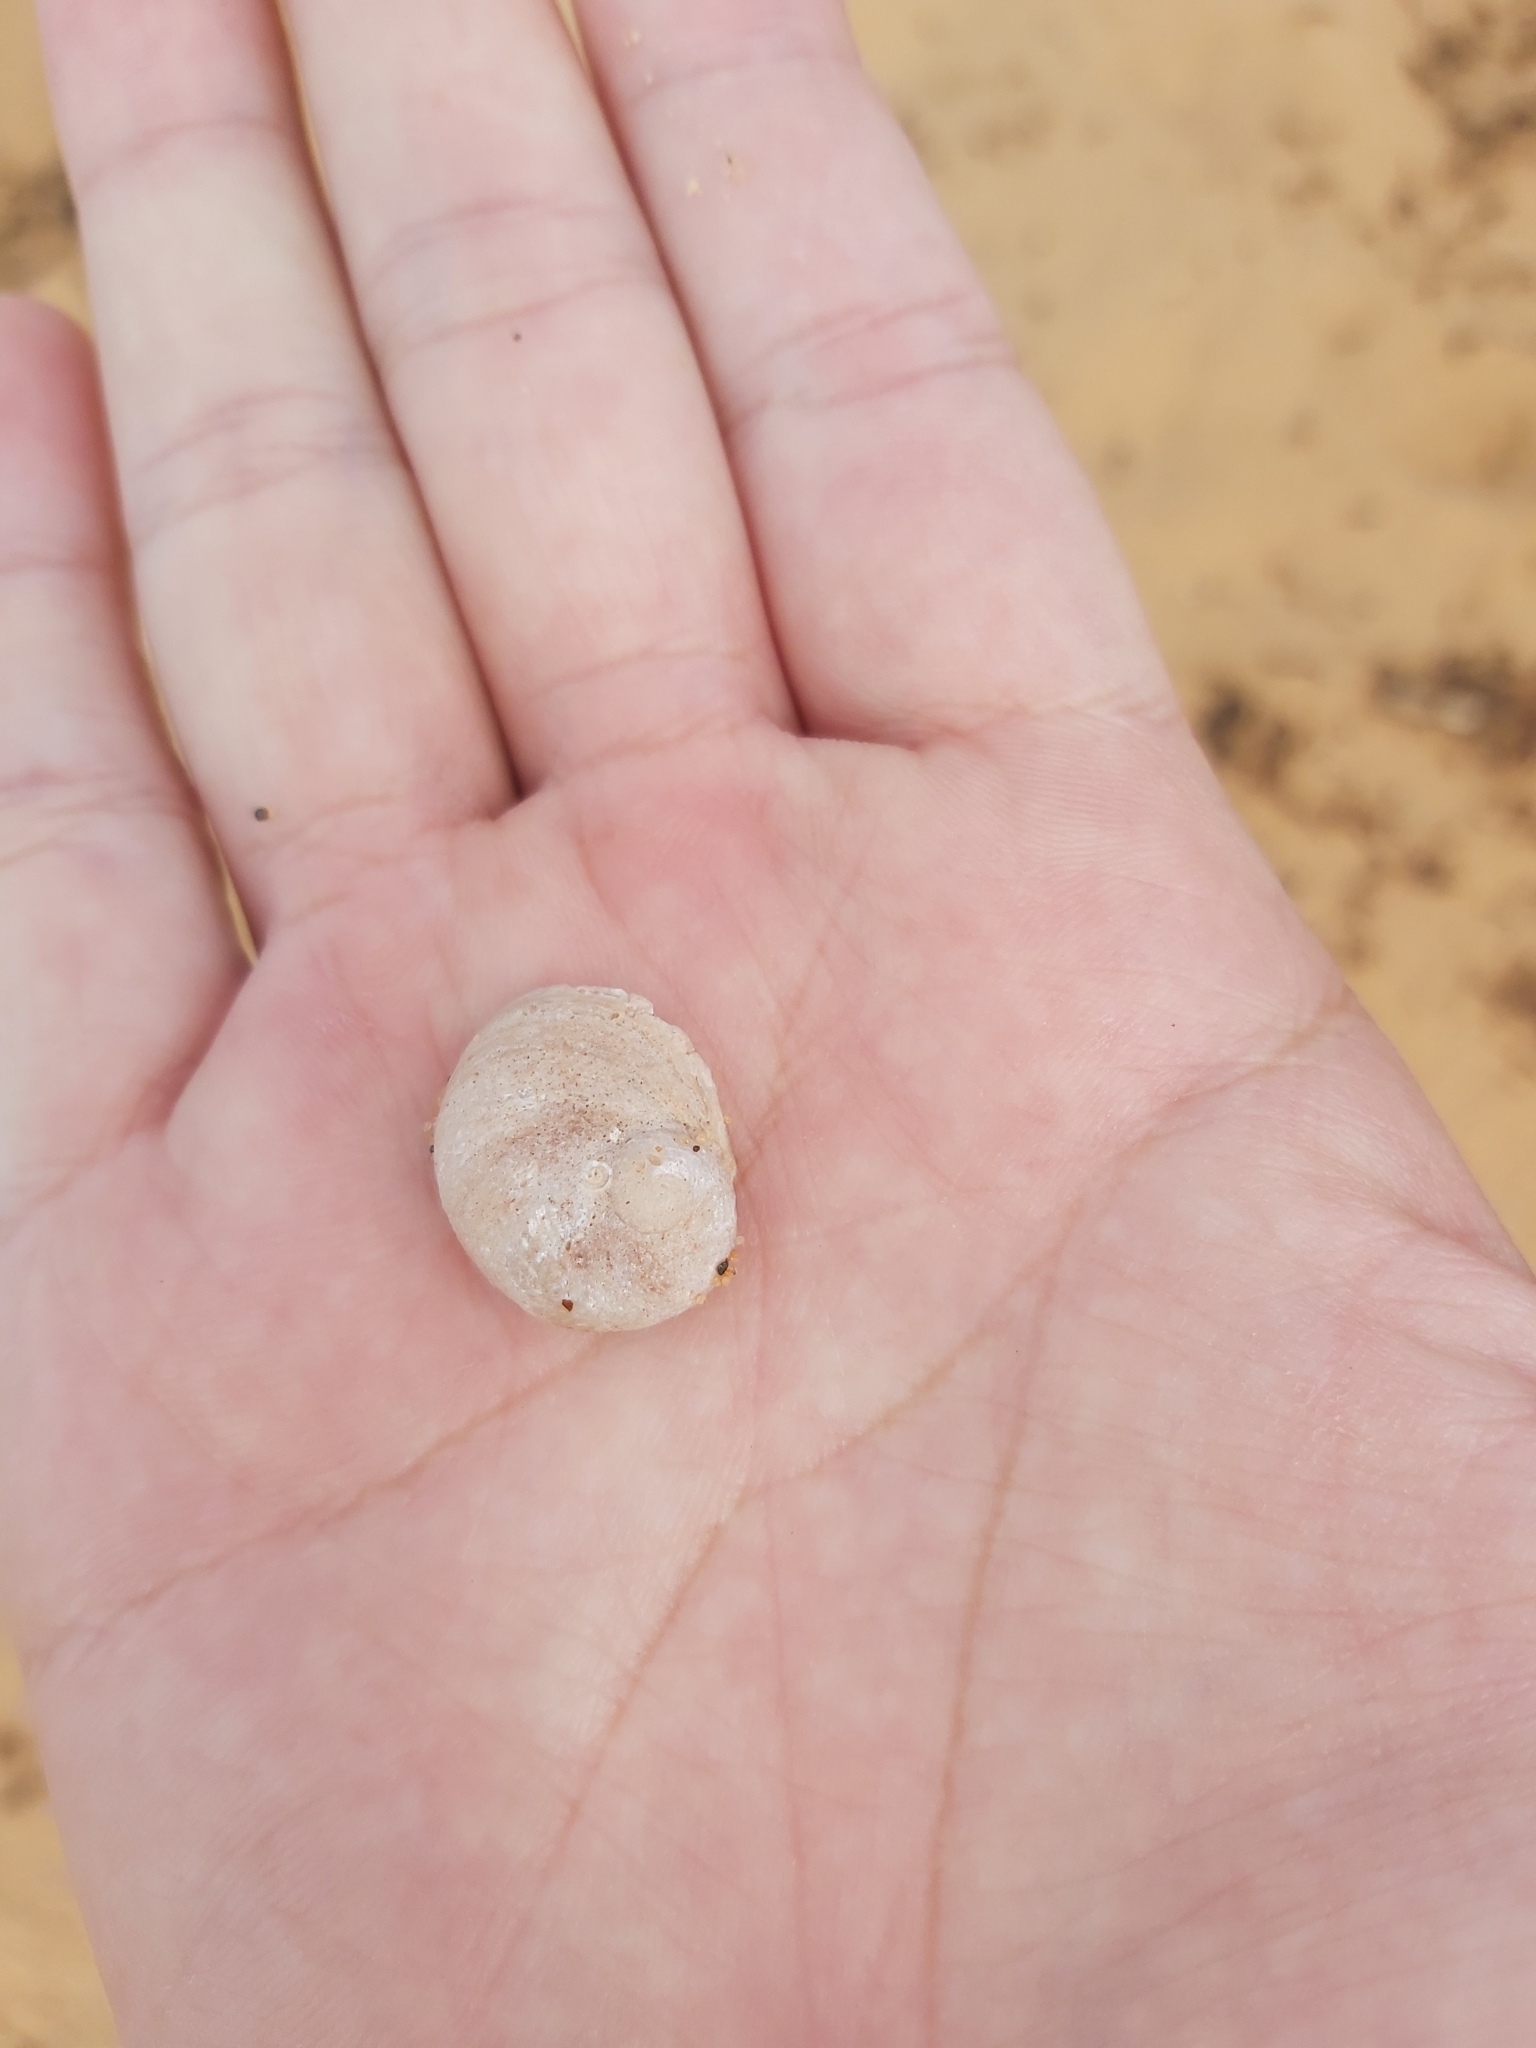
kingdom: Animalia
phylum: Mollusca
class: Gastropoda
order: Seguenziida
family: Chilodontaidae
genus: Granata
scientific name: Granata imbricata
